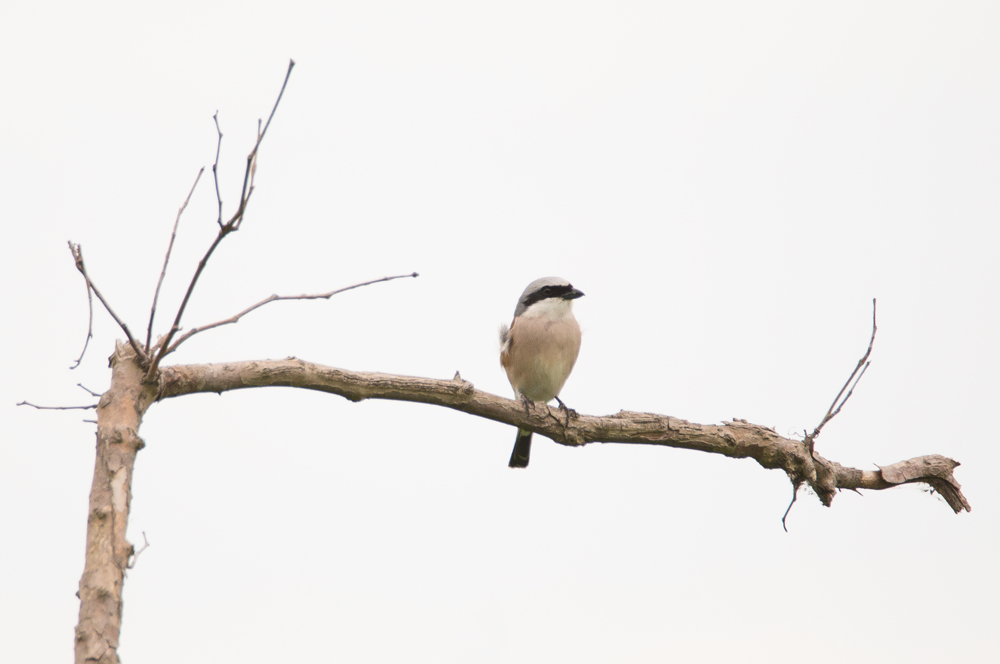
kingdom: Animalia
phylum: Chordata
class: Aves
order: Passeriformes
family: Laniidae
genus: Lanius
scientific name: Lanius collurio
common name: Red-backed shrike
